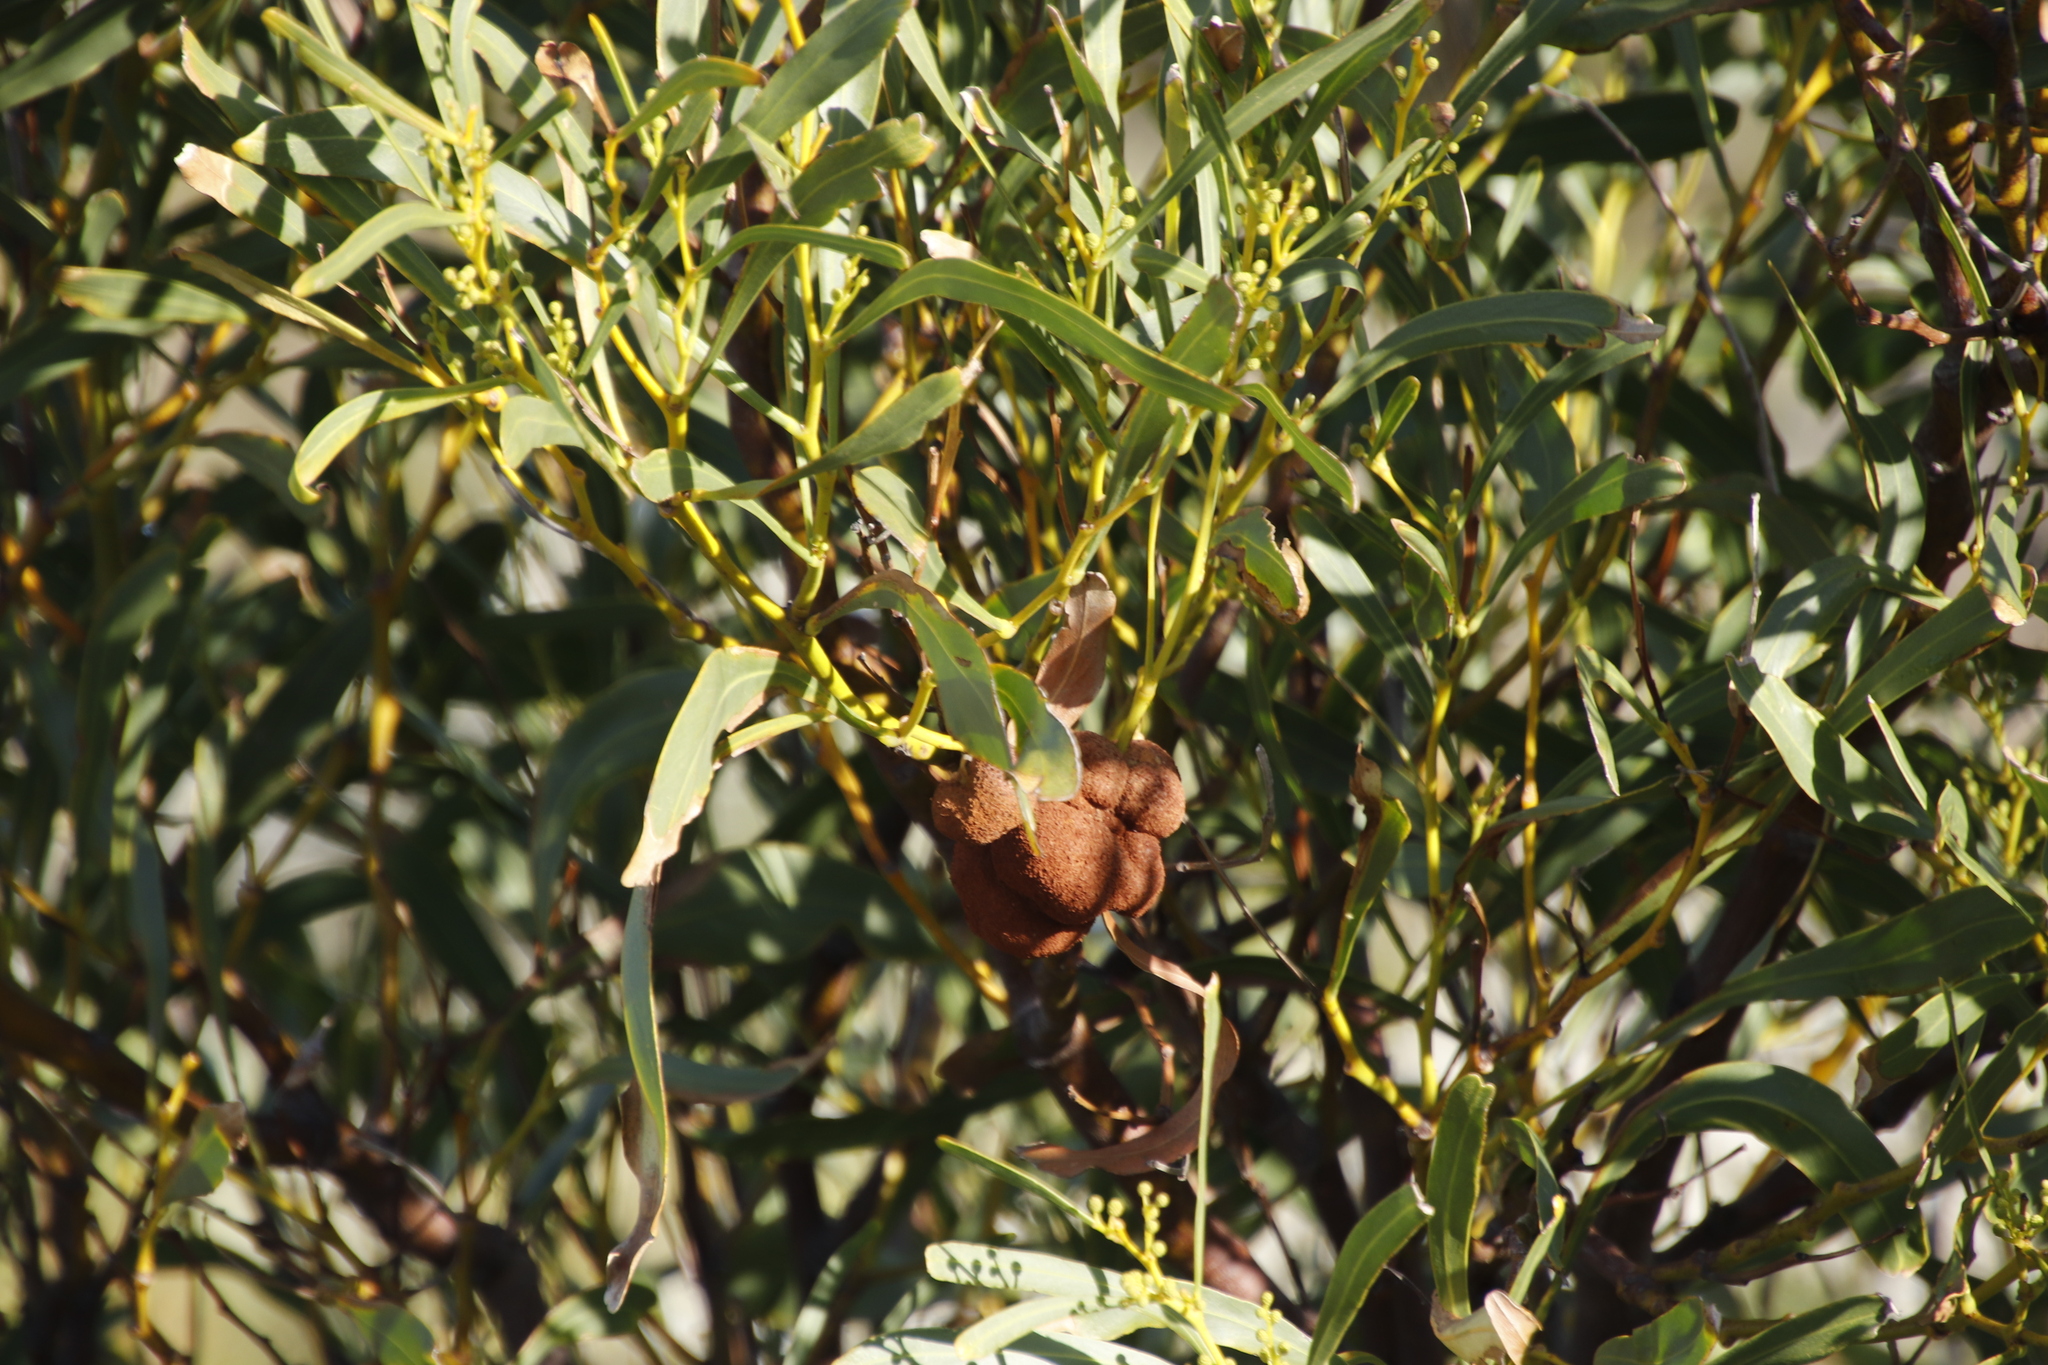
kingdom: Fungi
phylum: Basidiomycota
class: Pucciniomycetes
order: Pucciniales
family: Uromycladiaceae
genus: Uromycladium
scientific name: Uromycladium morrisii
